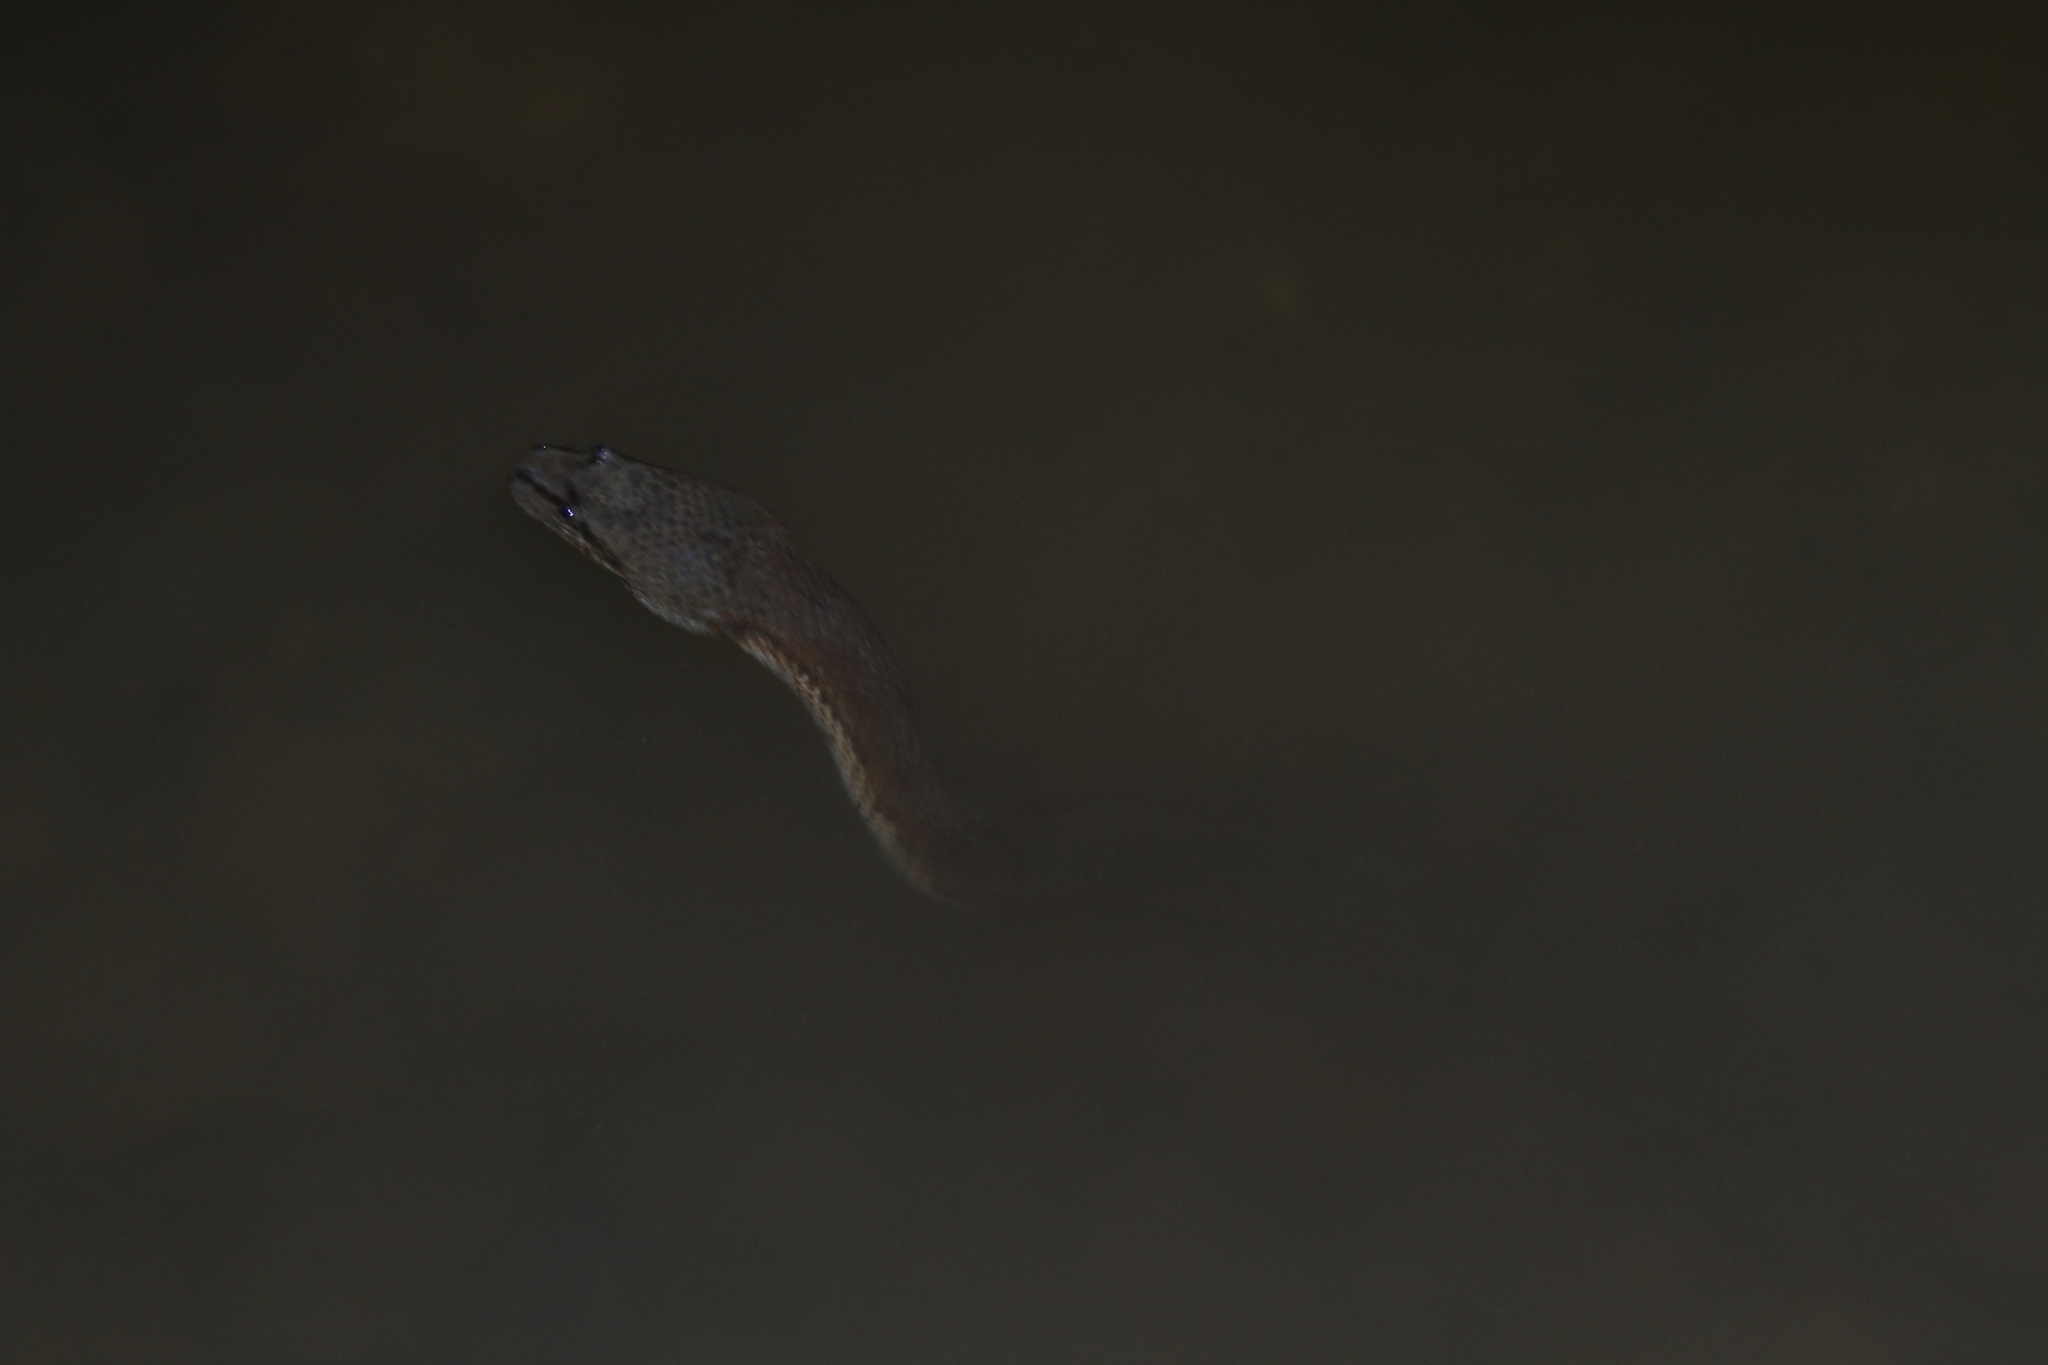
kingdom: Animalia
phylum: Chordata
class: Squamata
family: Homalopsidae
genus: Cerberus
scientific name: Cerberus schneiderii
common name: Southeast asian bockadam
